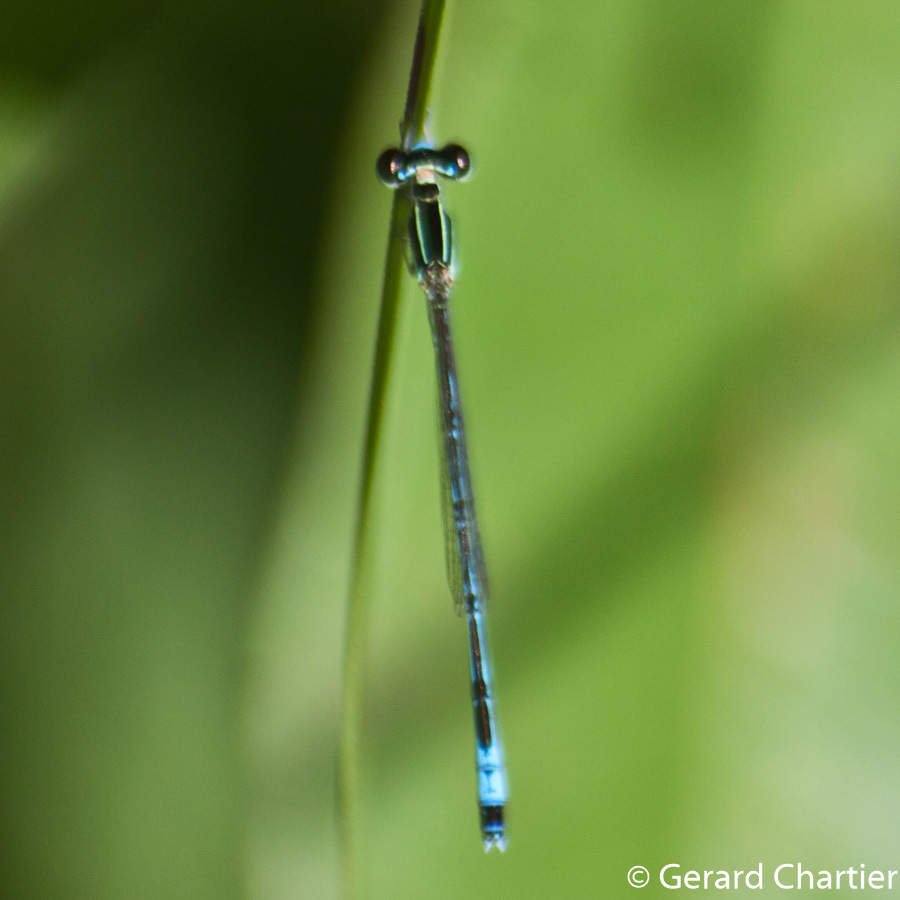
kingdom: Animalia
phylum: Arthropoda
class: Insecta
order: Odonata
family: Coenagrionidae
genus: Agriocnemis
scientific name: Agriocnemis nana
